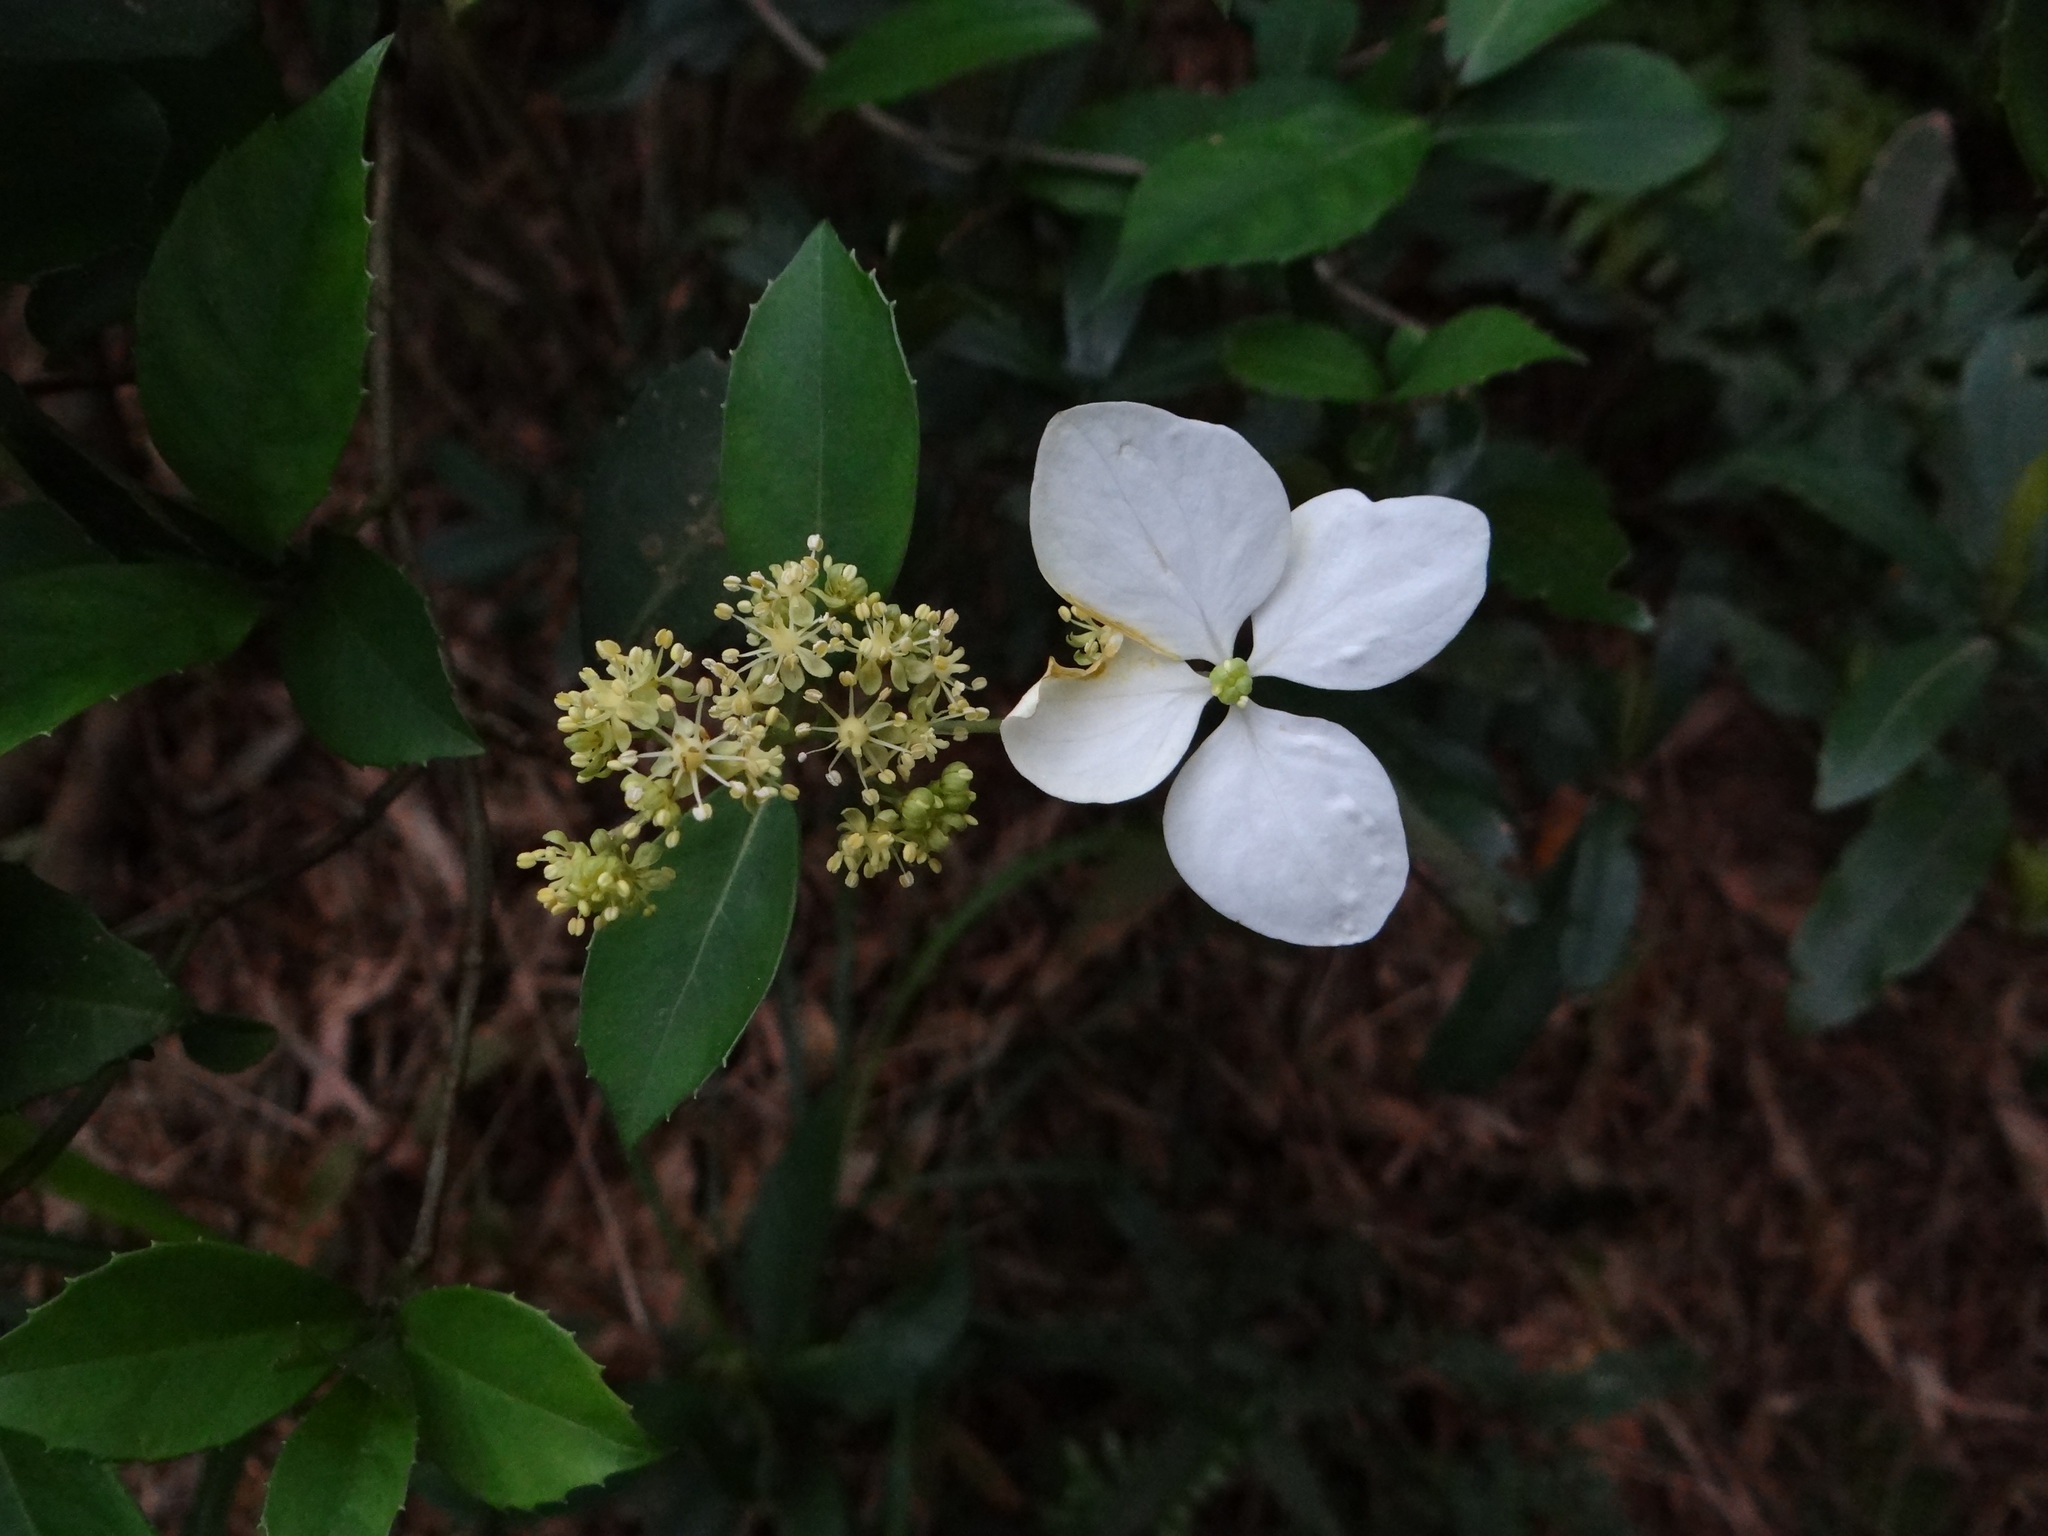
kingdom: Plantae
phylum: Tracheophyta
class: Magnoliopsida
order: Cornales
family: Hydrangeaceae
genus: Hydrangea
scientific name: Hydrangea chinensis
